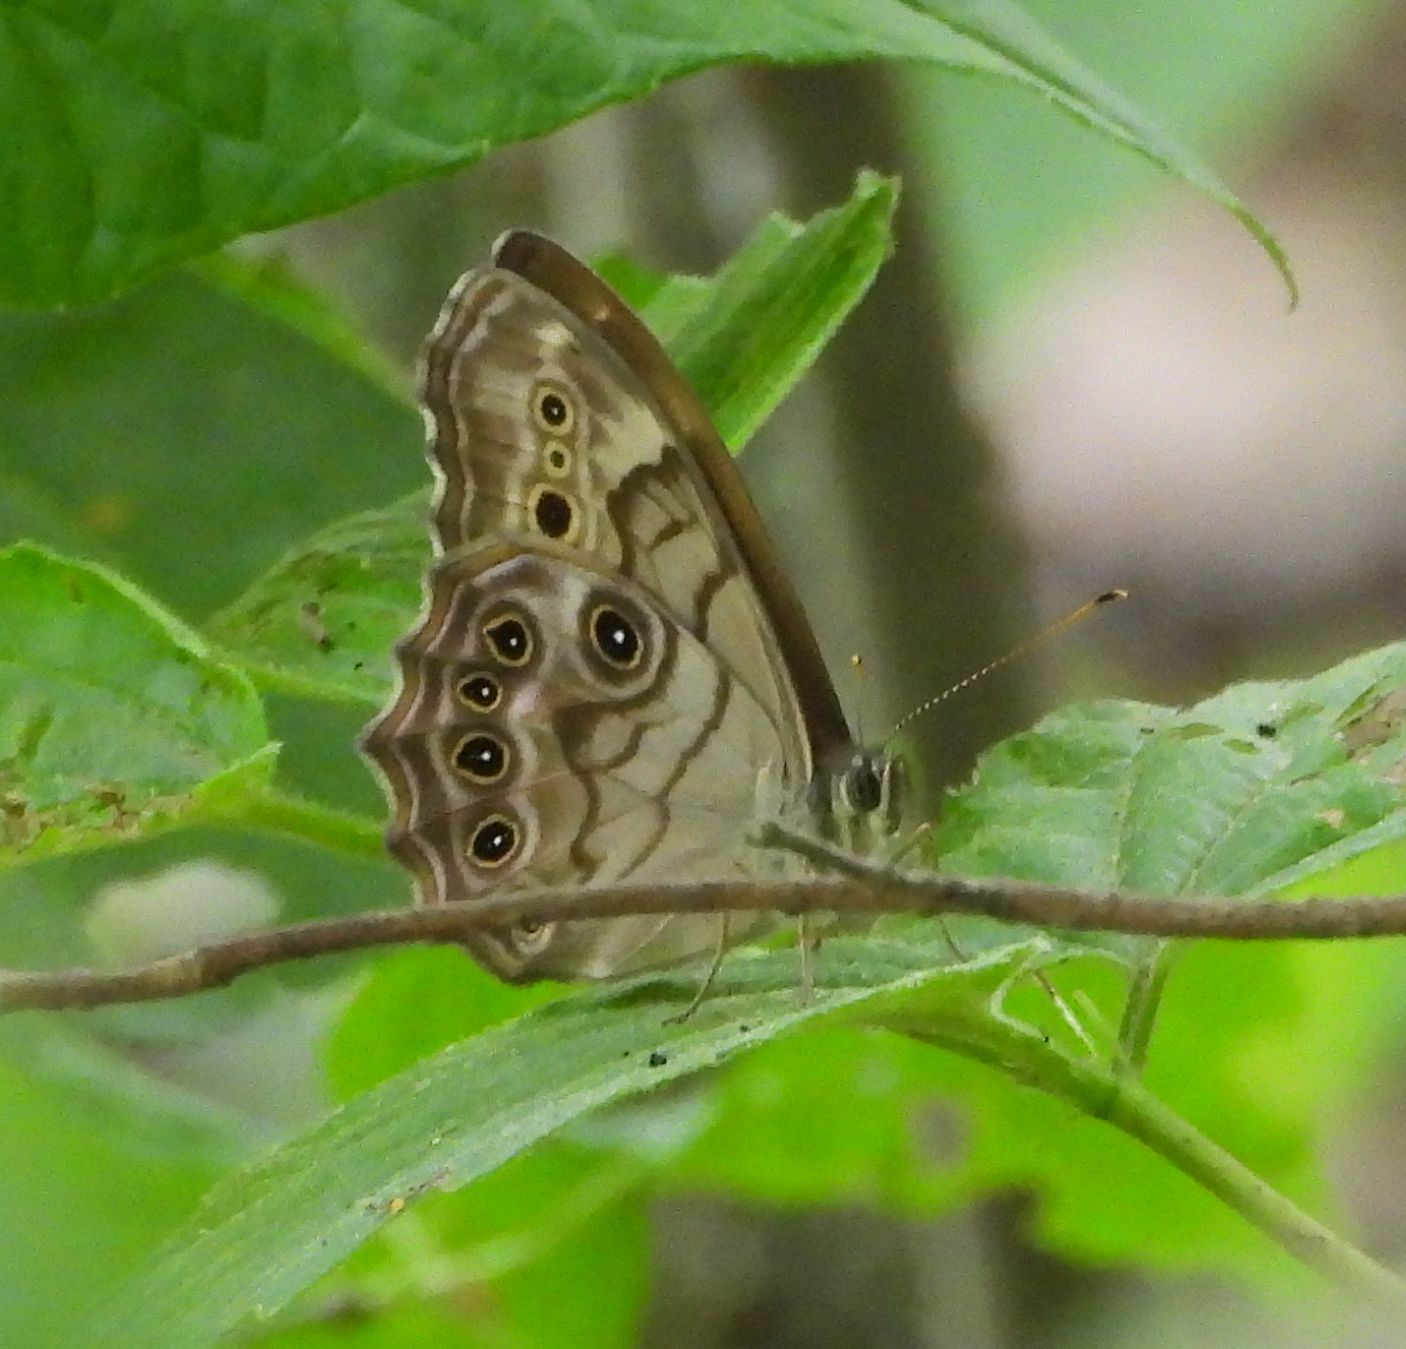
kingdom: Animalia
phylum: Arthropoda
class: Insecta
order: Lepidoptera
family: Nymphalidae
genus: Lethe
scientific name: Lethe anthedon
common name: Northern pearly-eye
